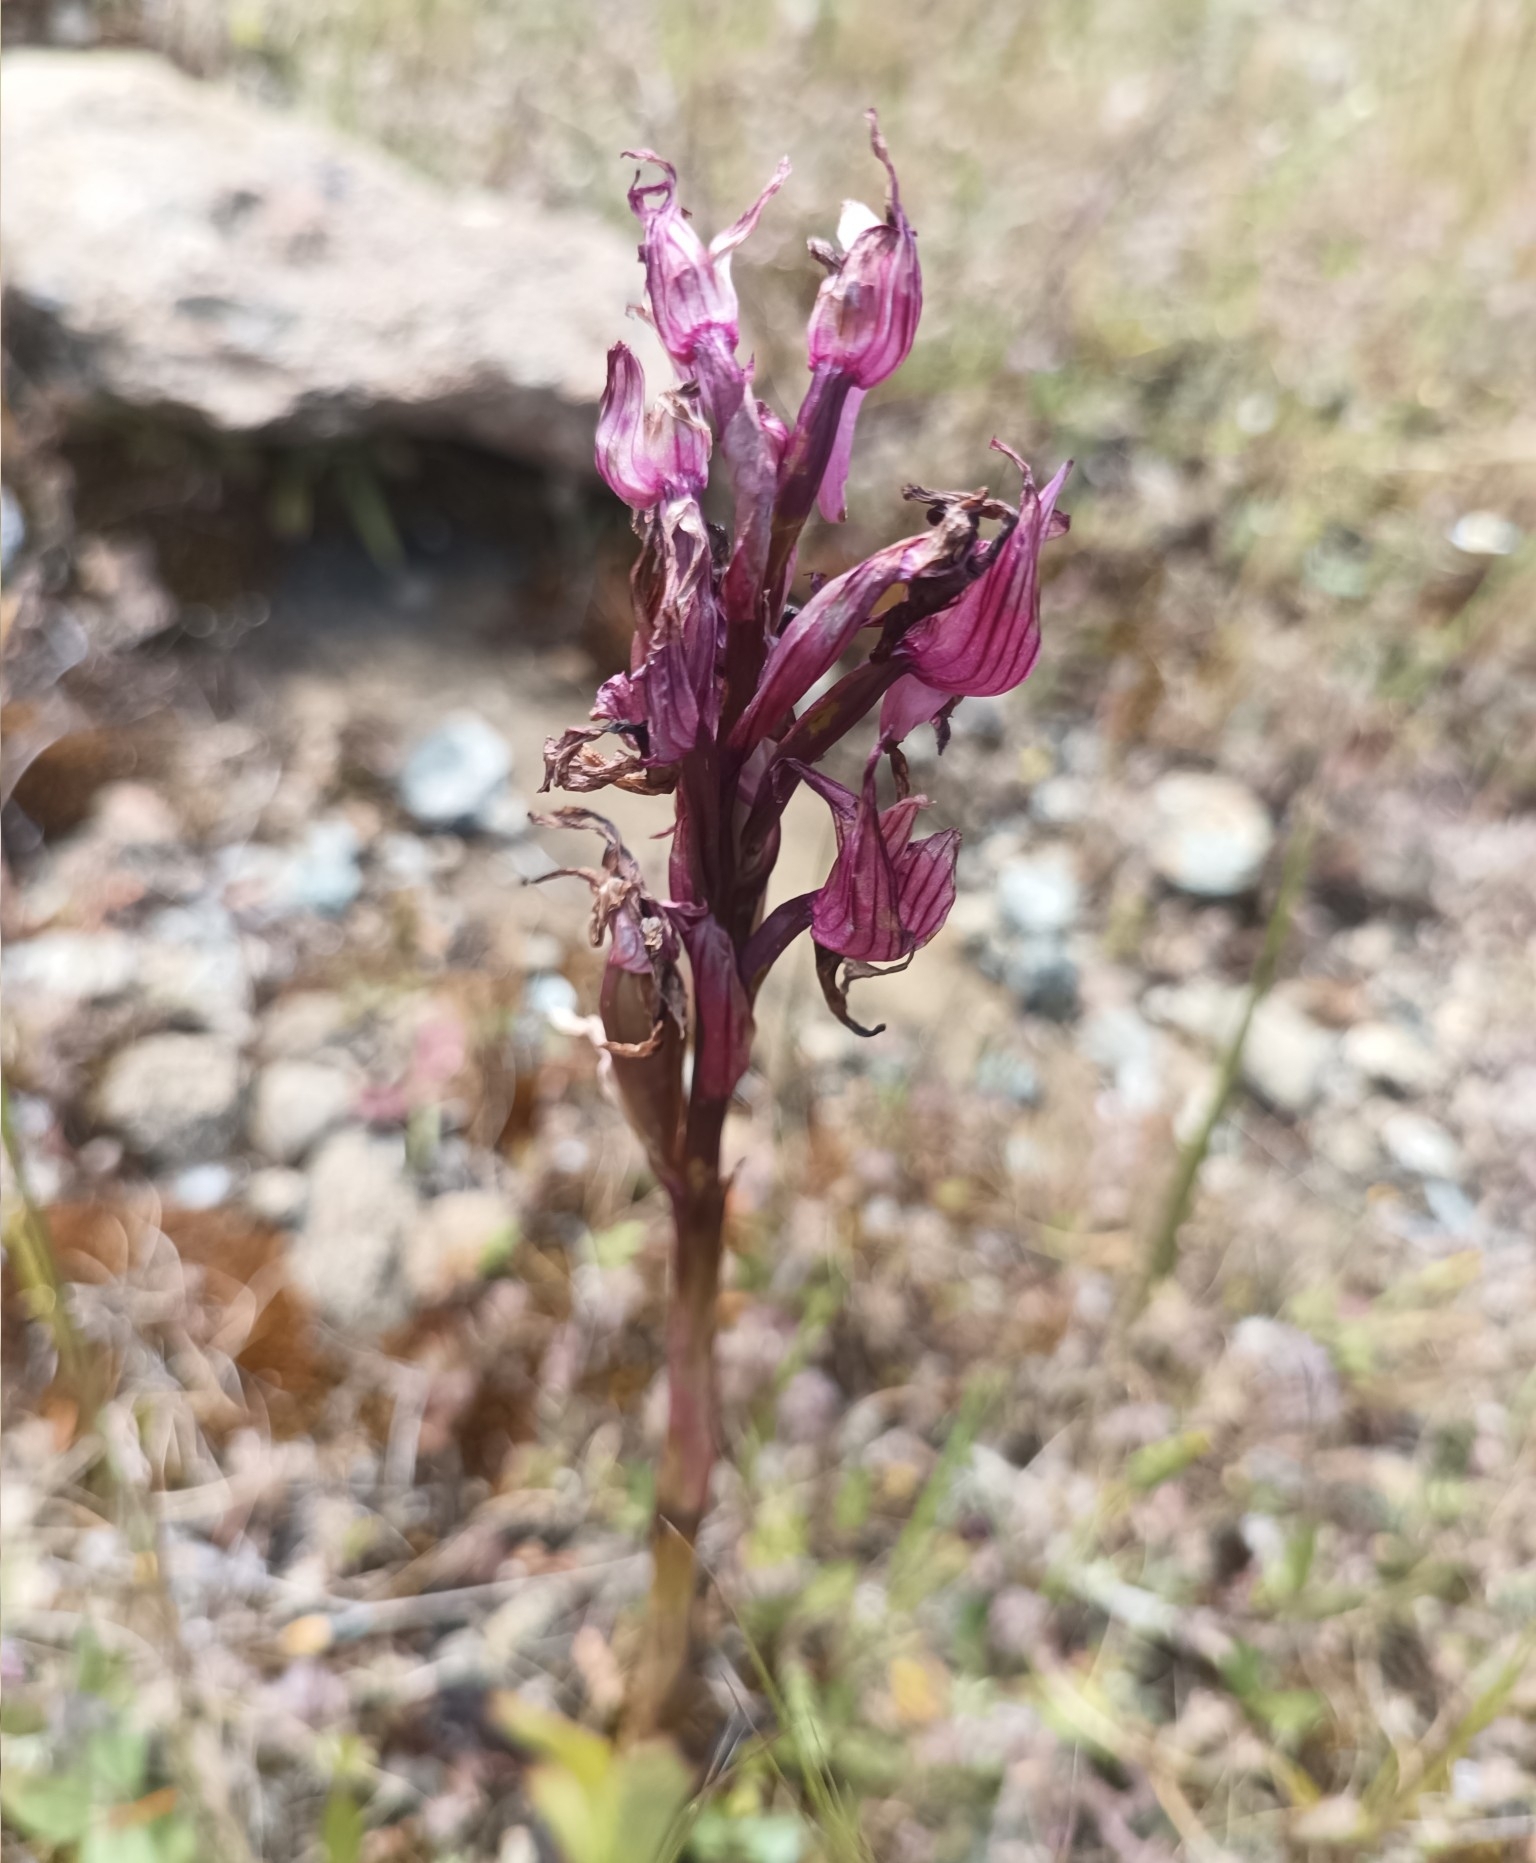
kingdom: Plantae
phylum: Tracheophyta
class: Liliopsida
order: Asparagales
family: Orchidaceae
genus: Anacamptis
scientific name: Anacamptis papilionacea
